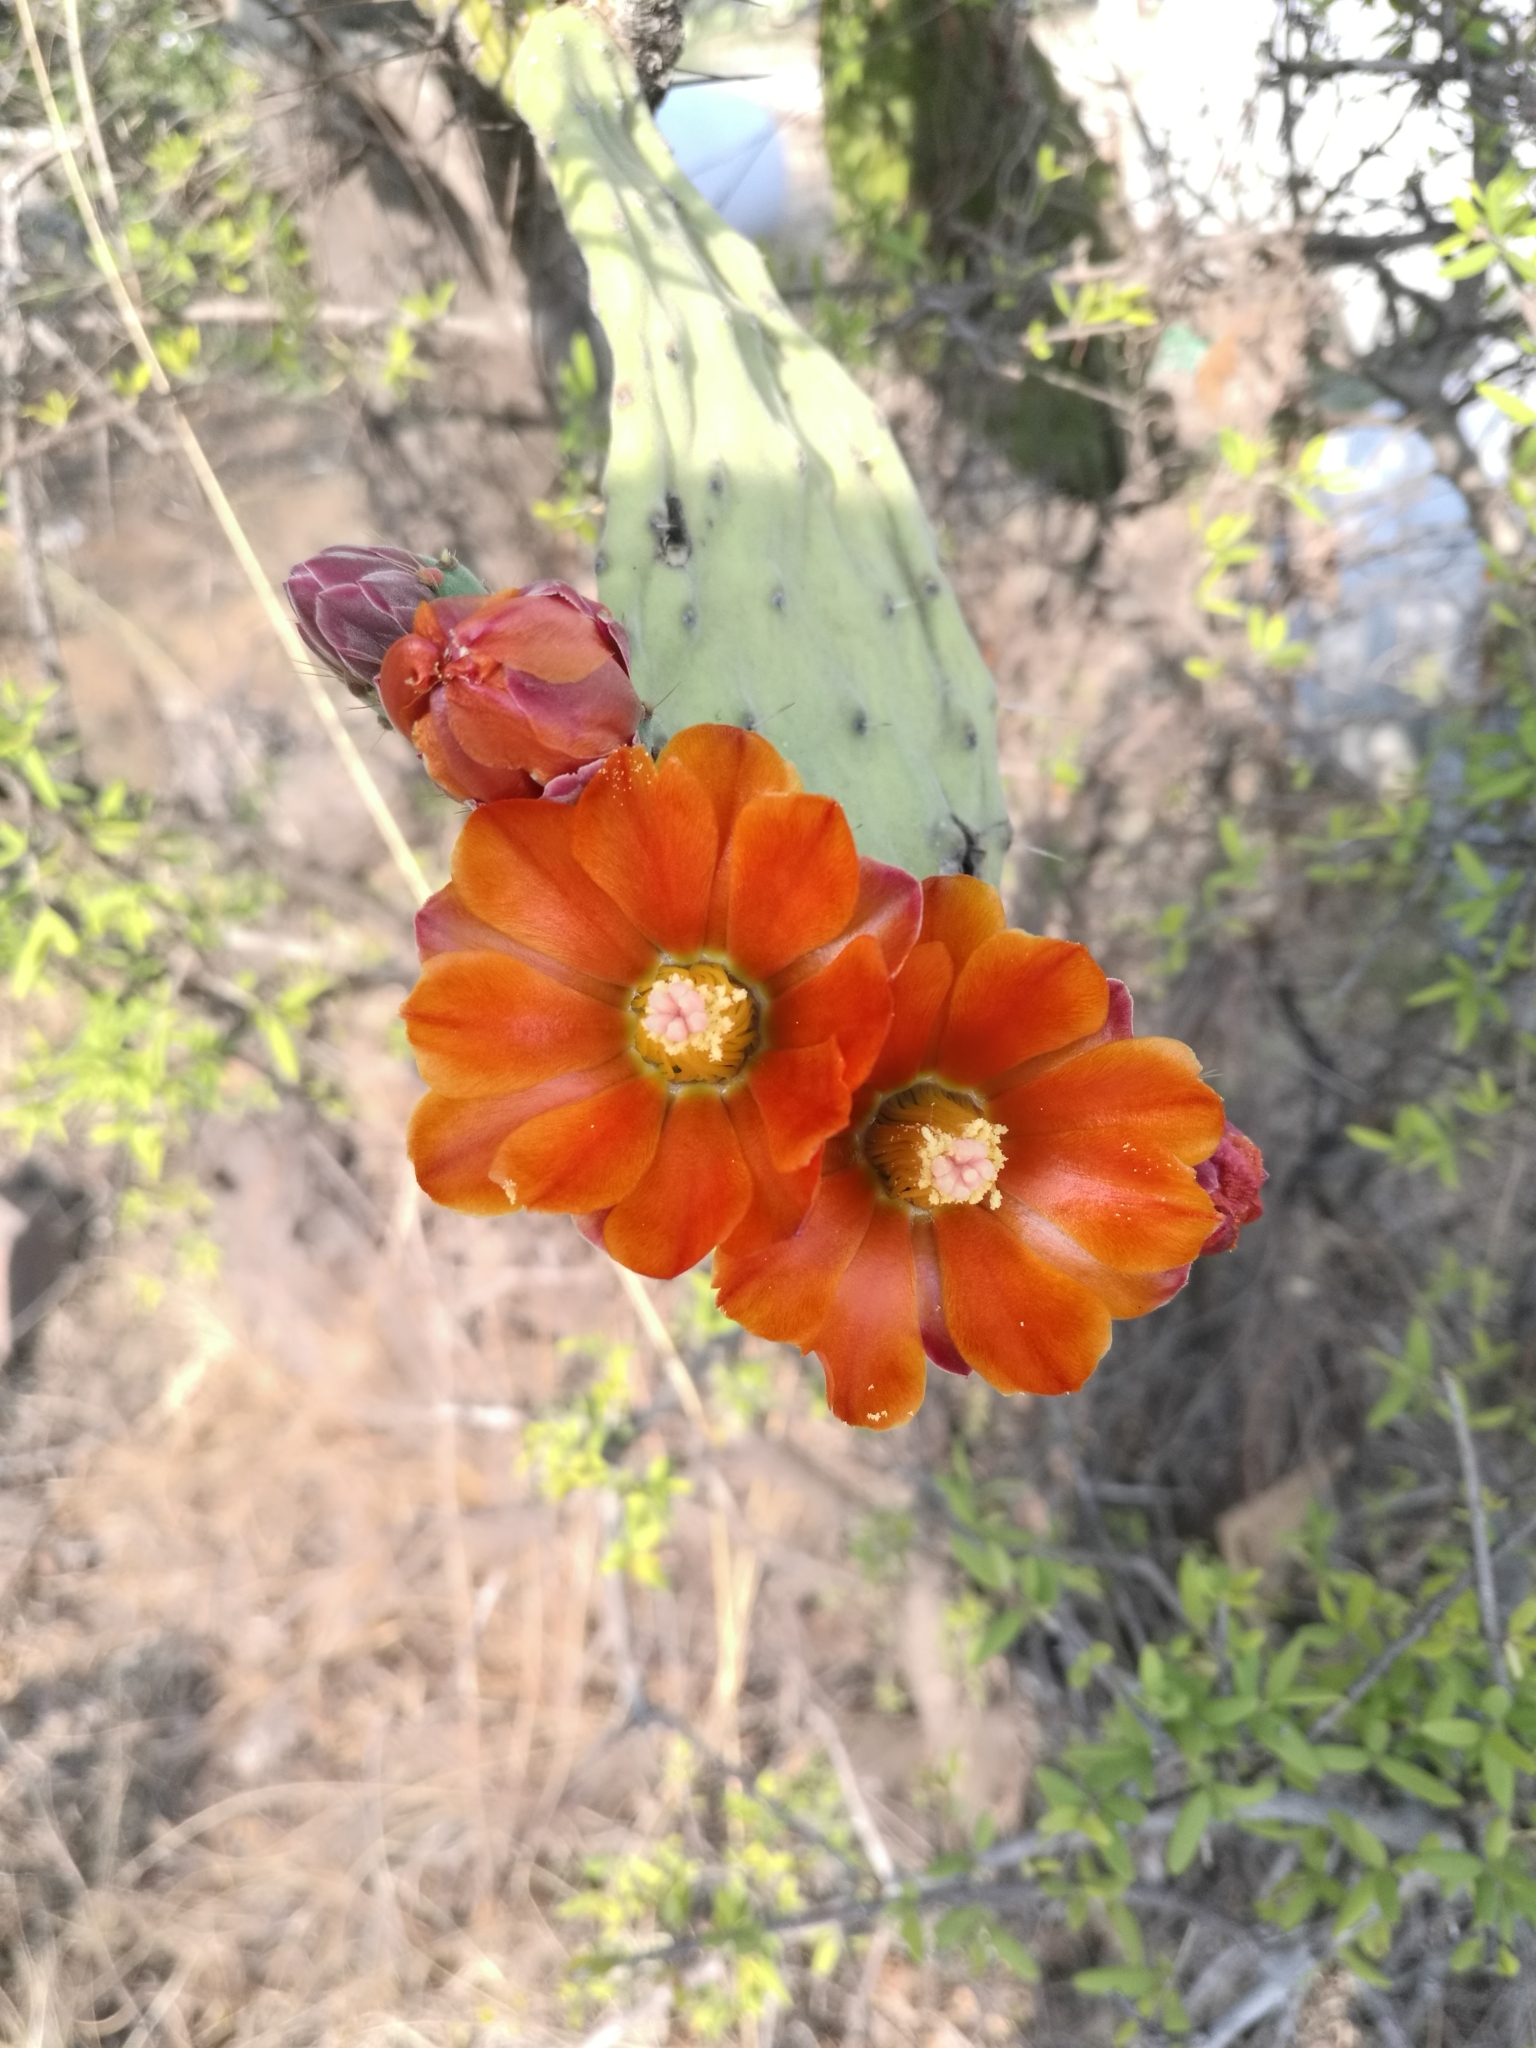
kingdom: Plantae
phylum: Tracheophyta
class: Magnoliopsida
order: Caryophyllales
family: Cactaceae
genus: Opuntia
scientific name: Opuntia tomentosa
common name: Woollyjoint pricklypear
